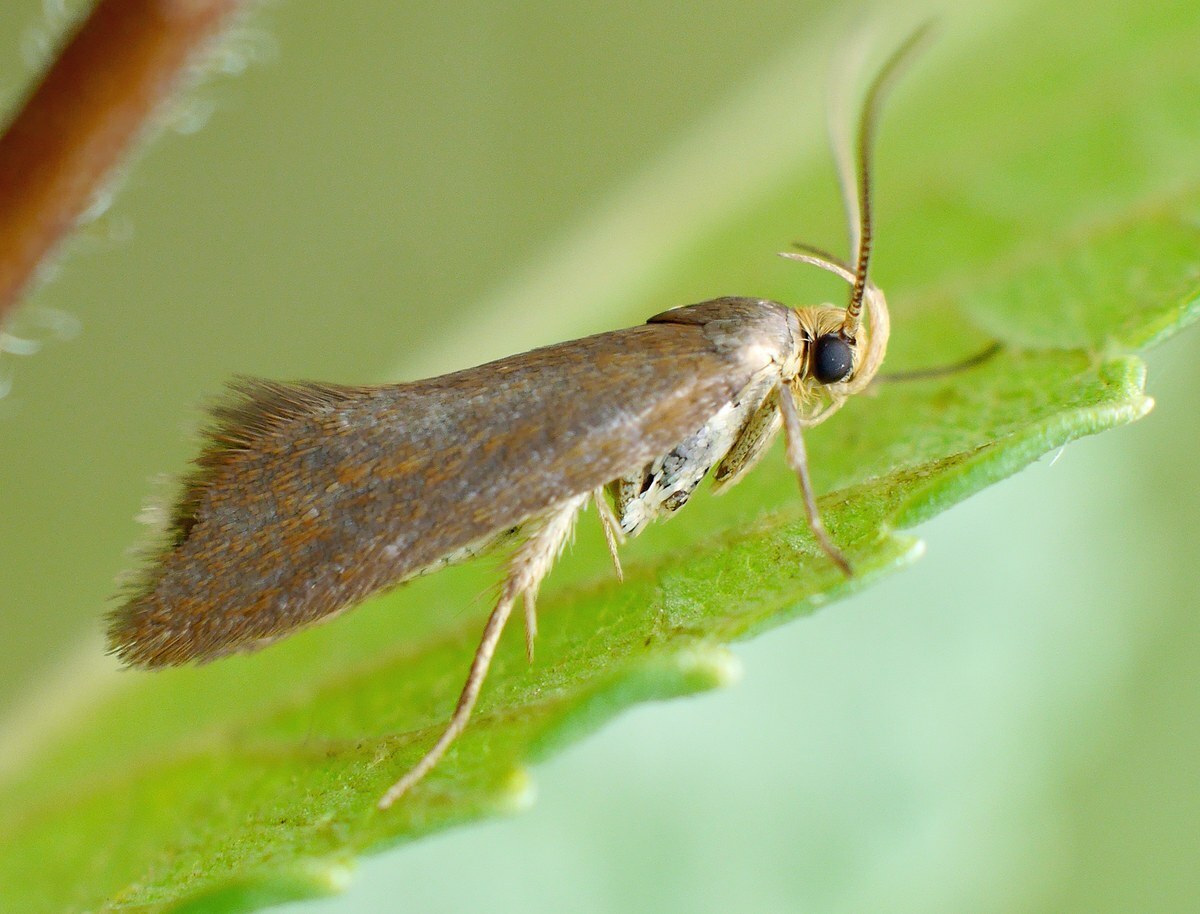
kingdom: Animalia
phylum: Arthropoda
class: Insecta
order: Lepidoptera
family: Oecophoridae
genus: Borkhausenia
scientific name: Borkhausenia Crassa unitella
